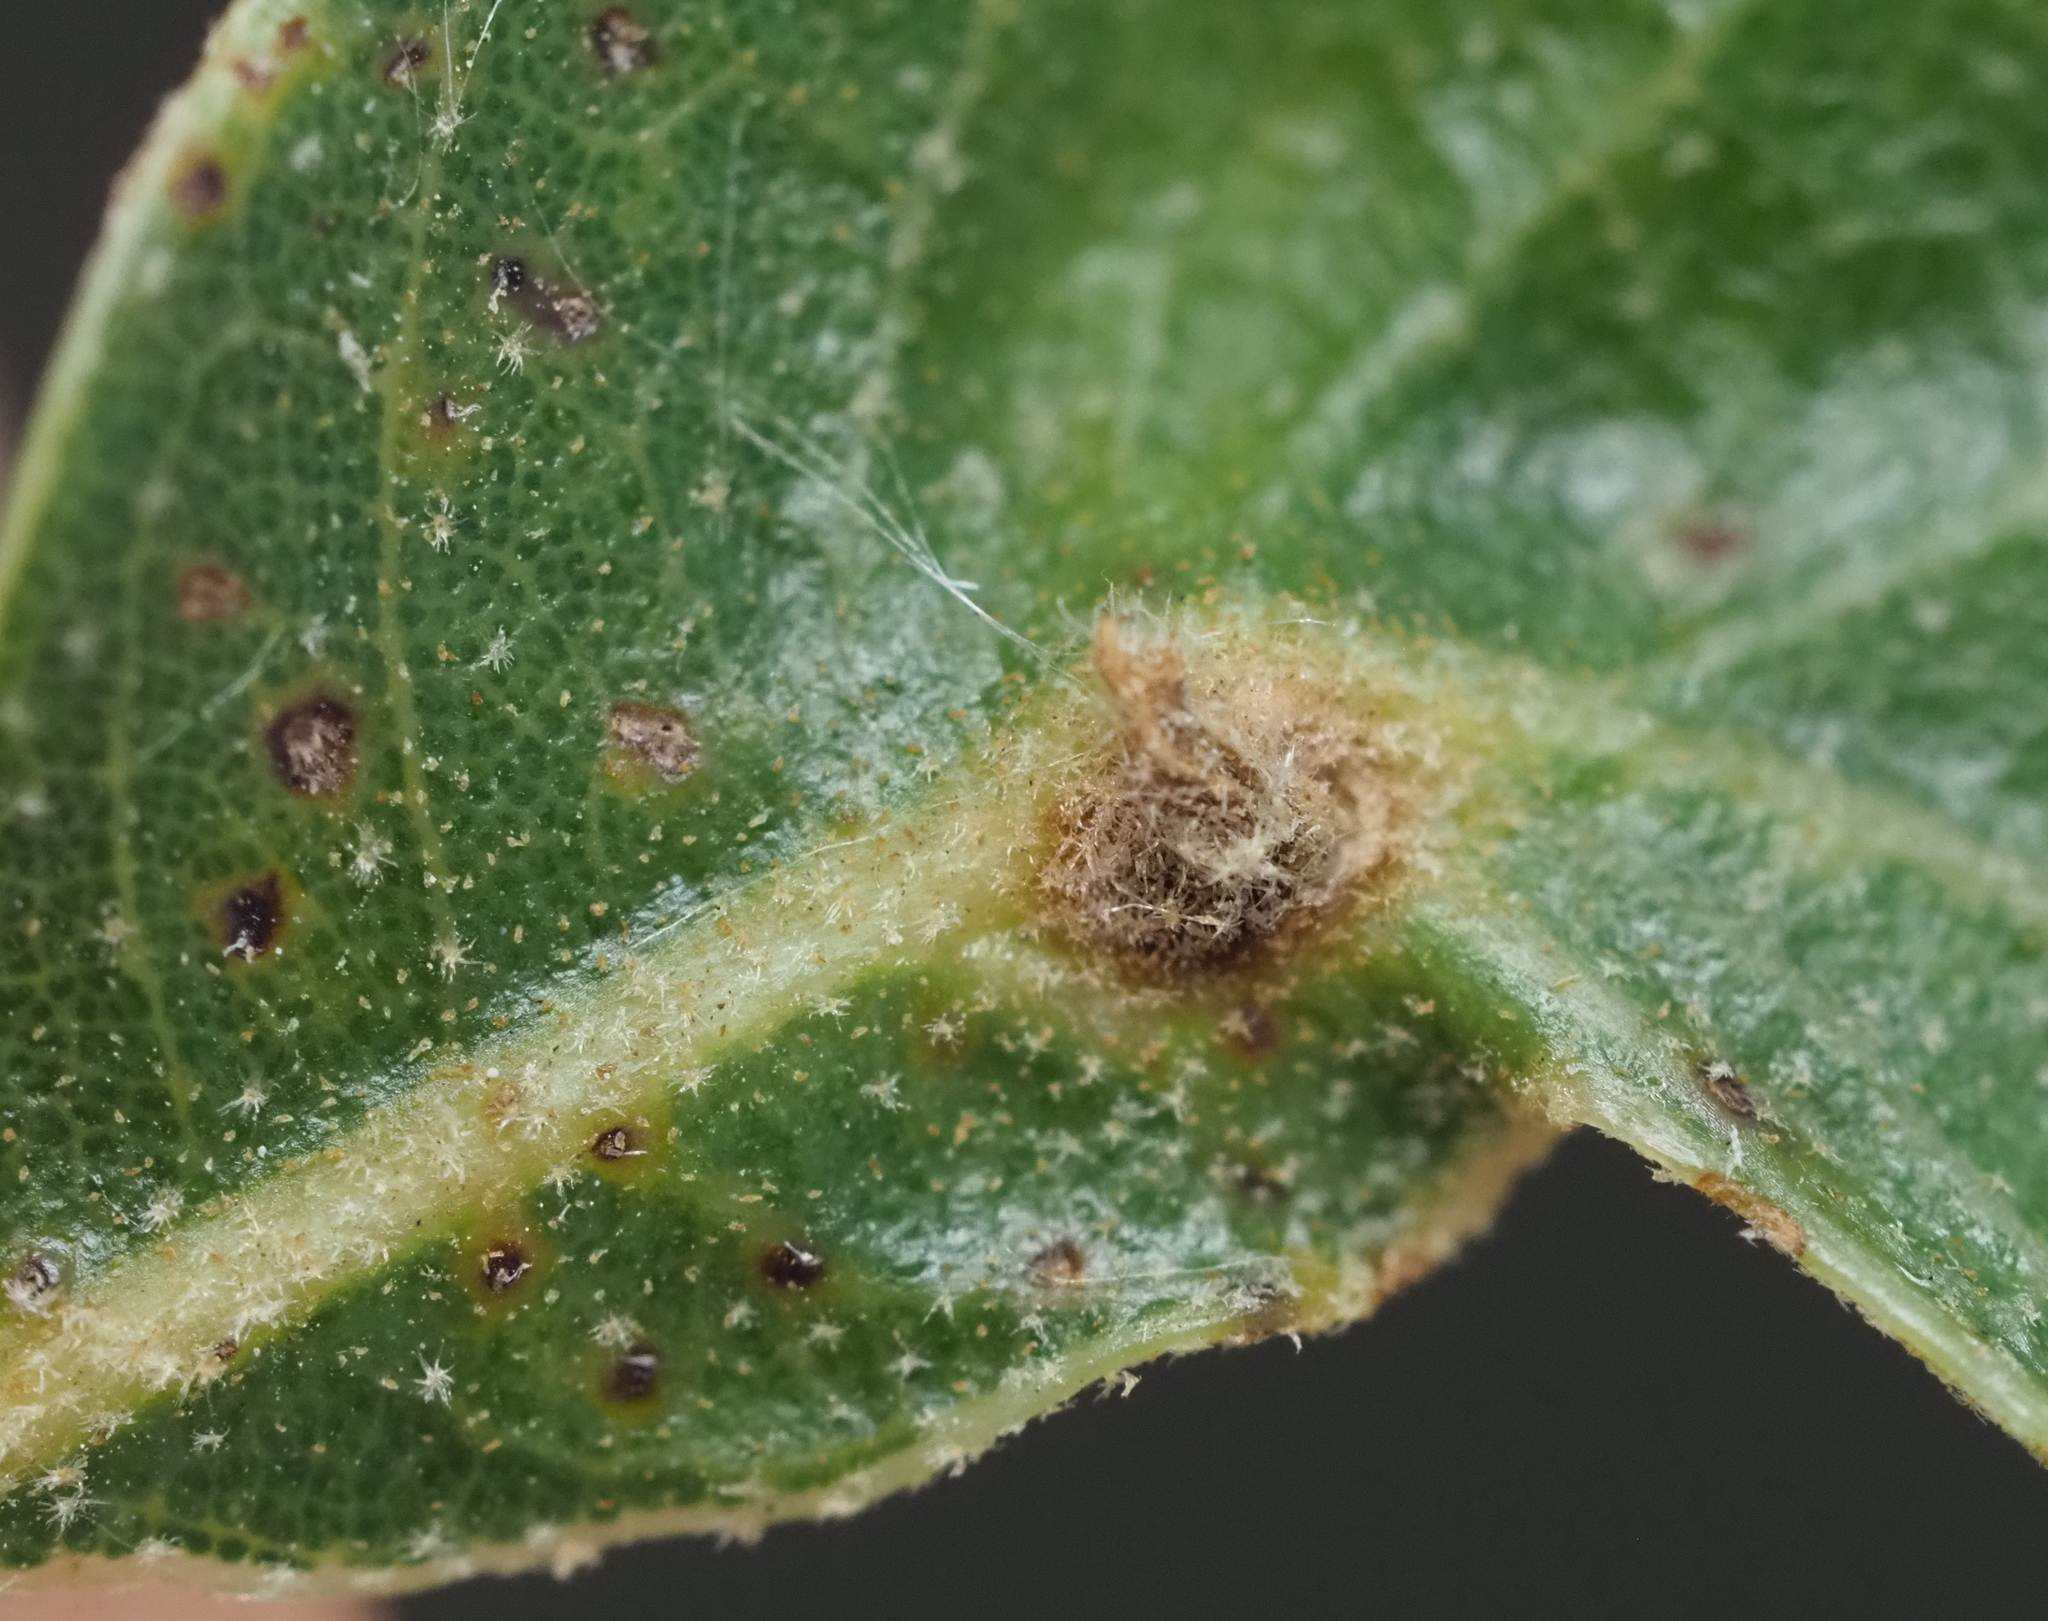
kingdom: Animalia
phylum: Arthropoda
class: Insecta
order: Hymenoptera
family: Cynipidae
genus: Andricus
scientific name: Andricus highlandensis
